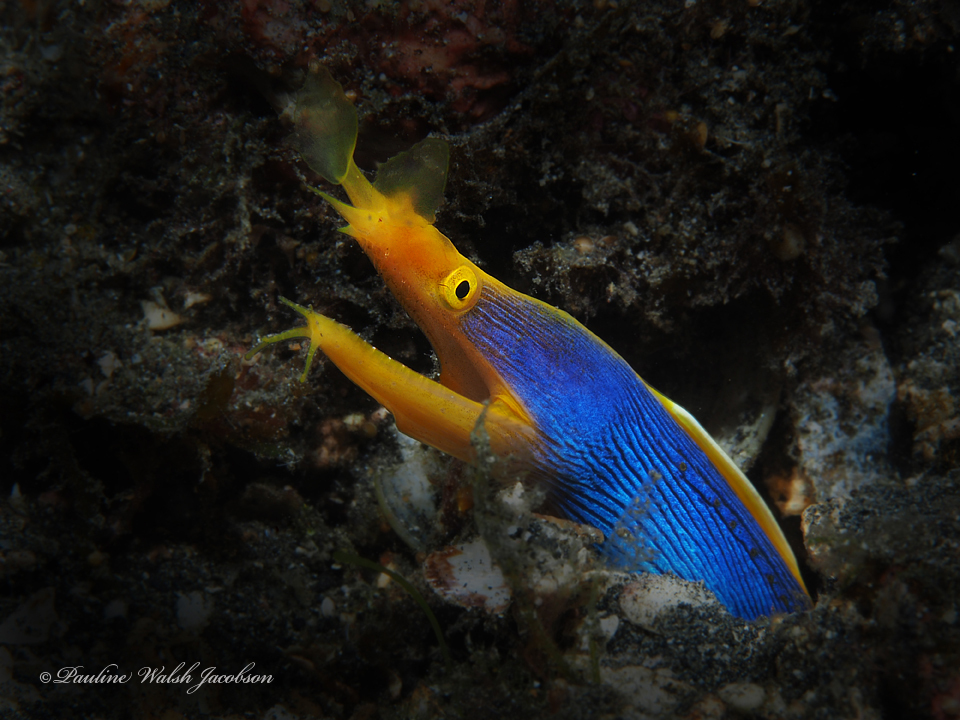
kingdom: Animalia
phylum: Chordata
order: Anguilliformes
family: Muraenidae
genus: Rhinomuraena
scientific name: Rhinomuraena quaesita
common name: Ribbon eel
